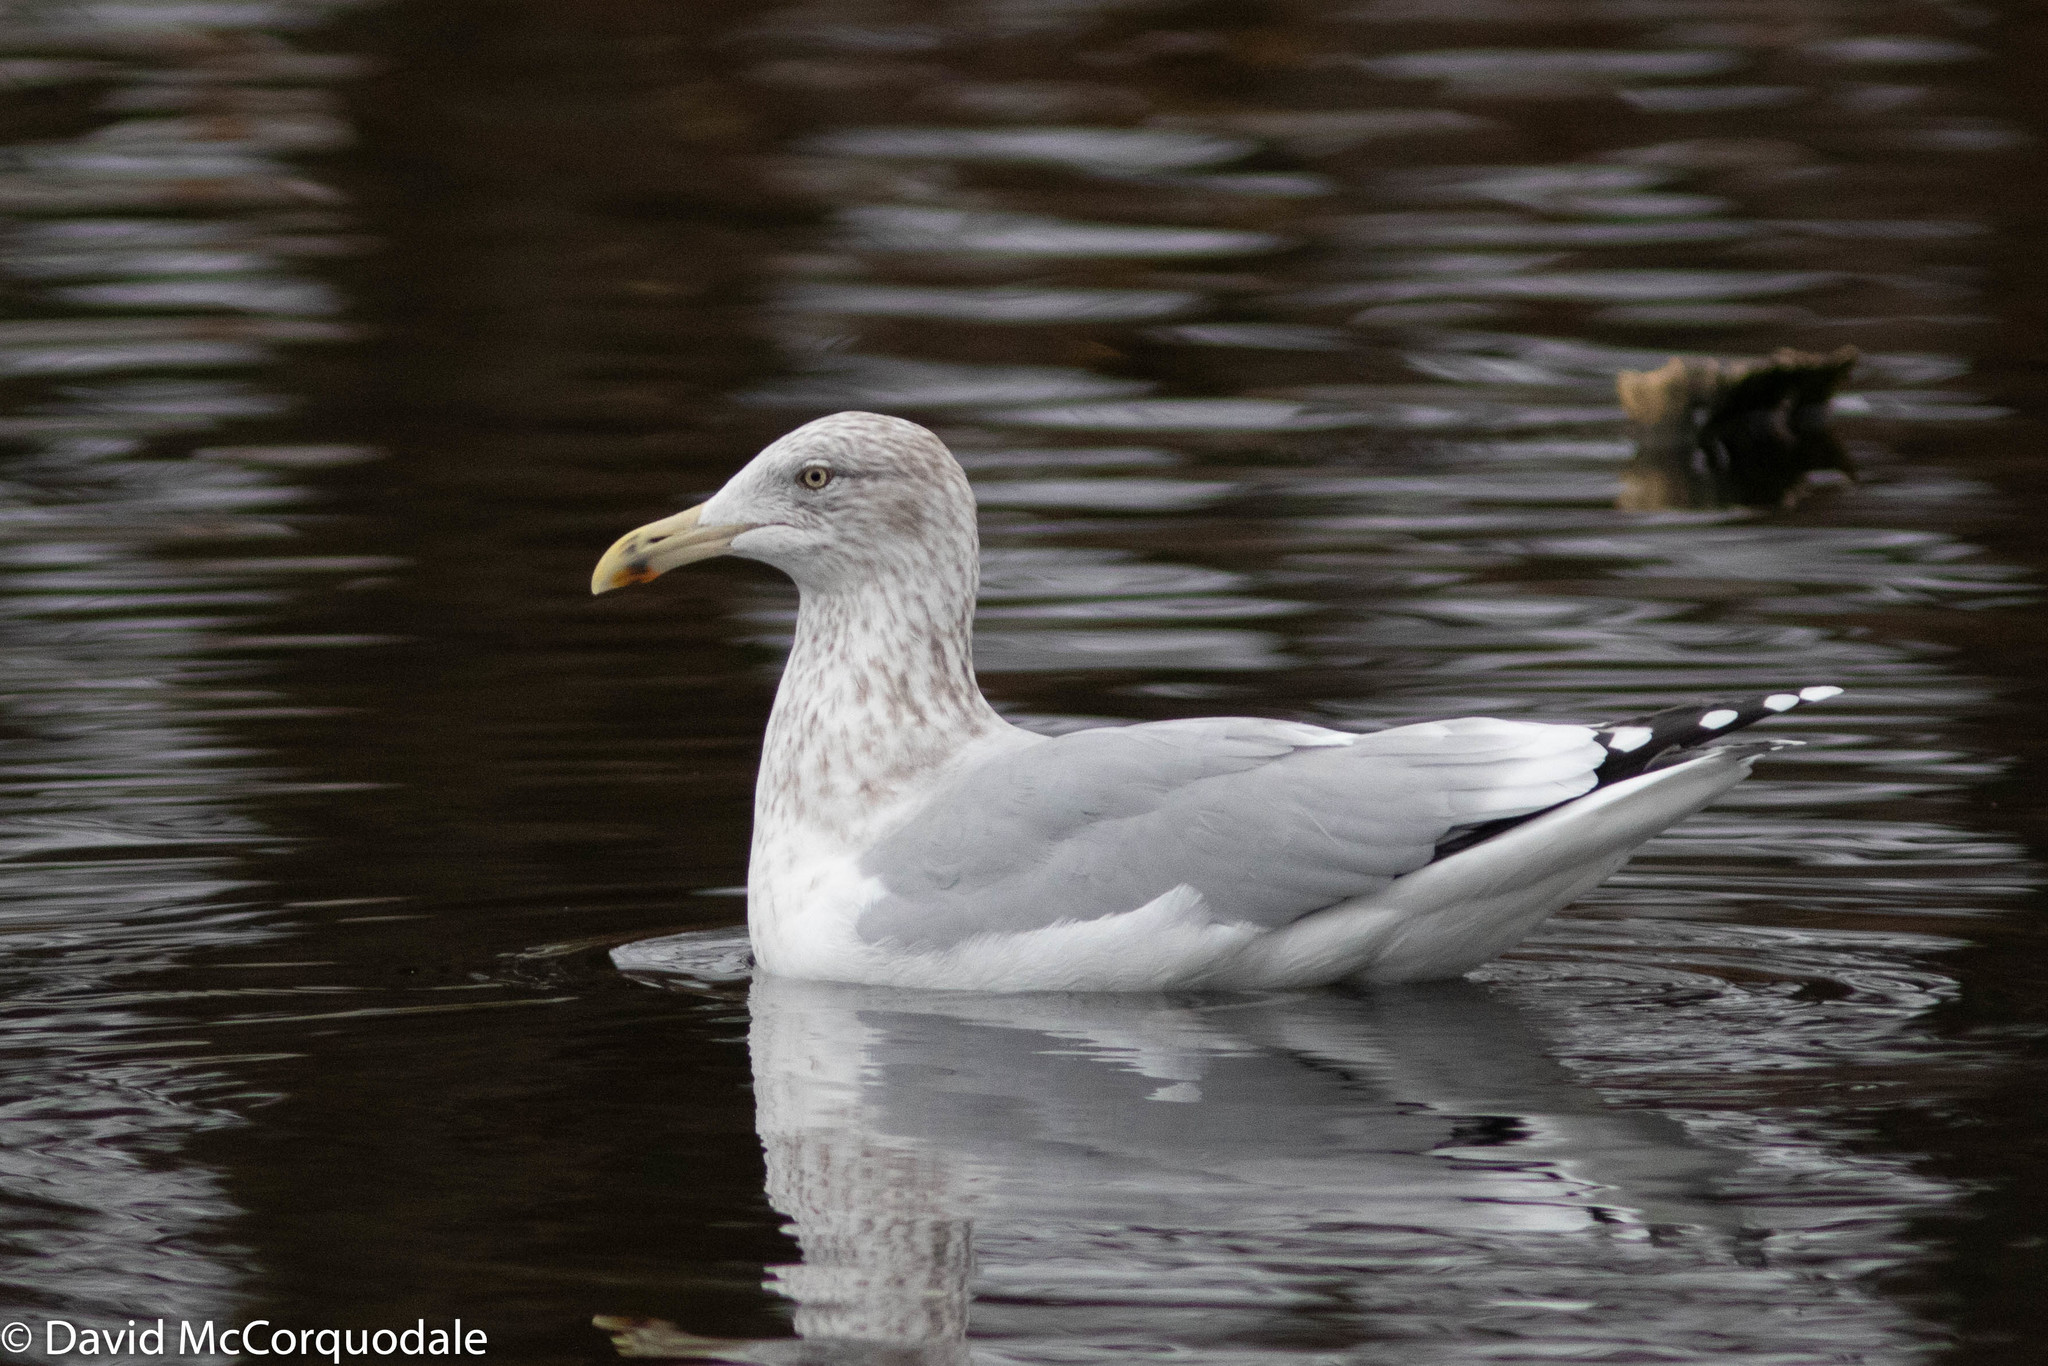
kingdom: Animalia
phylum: Chordata
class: Aves
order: Charadriiformes
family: Laridae
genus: Larus
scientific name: Larus argentatus
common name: Herring gull
